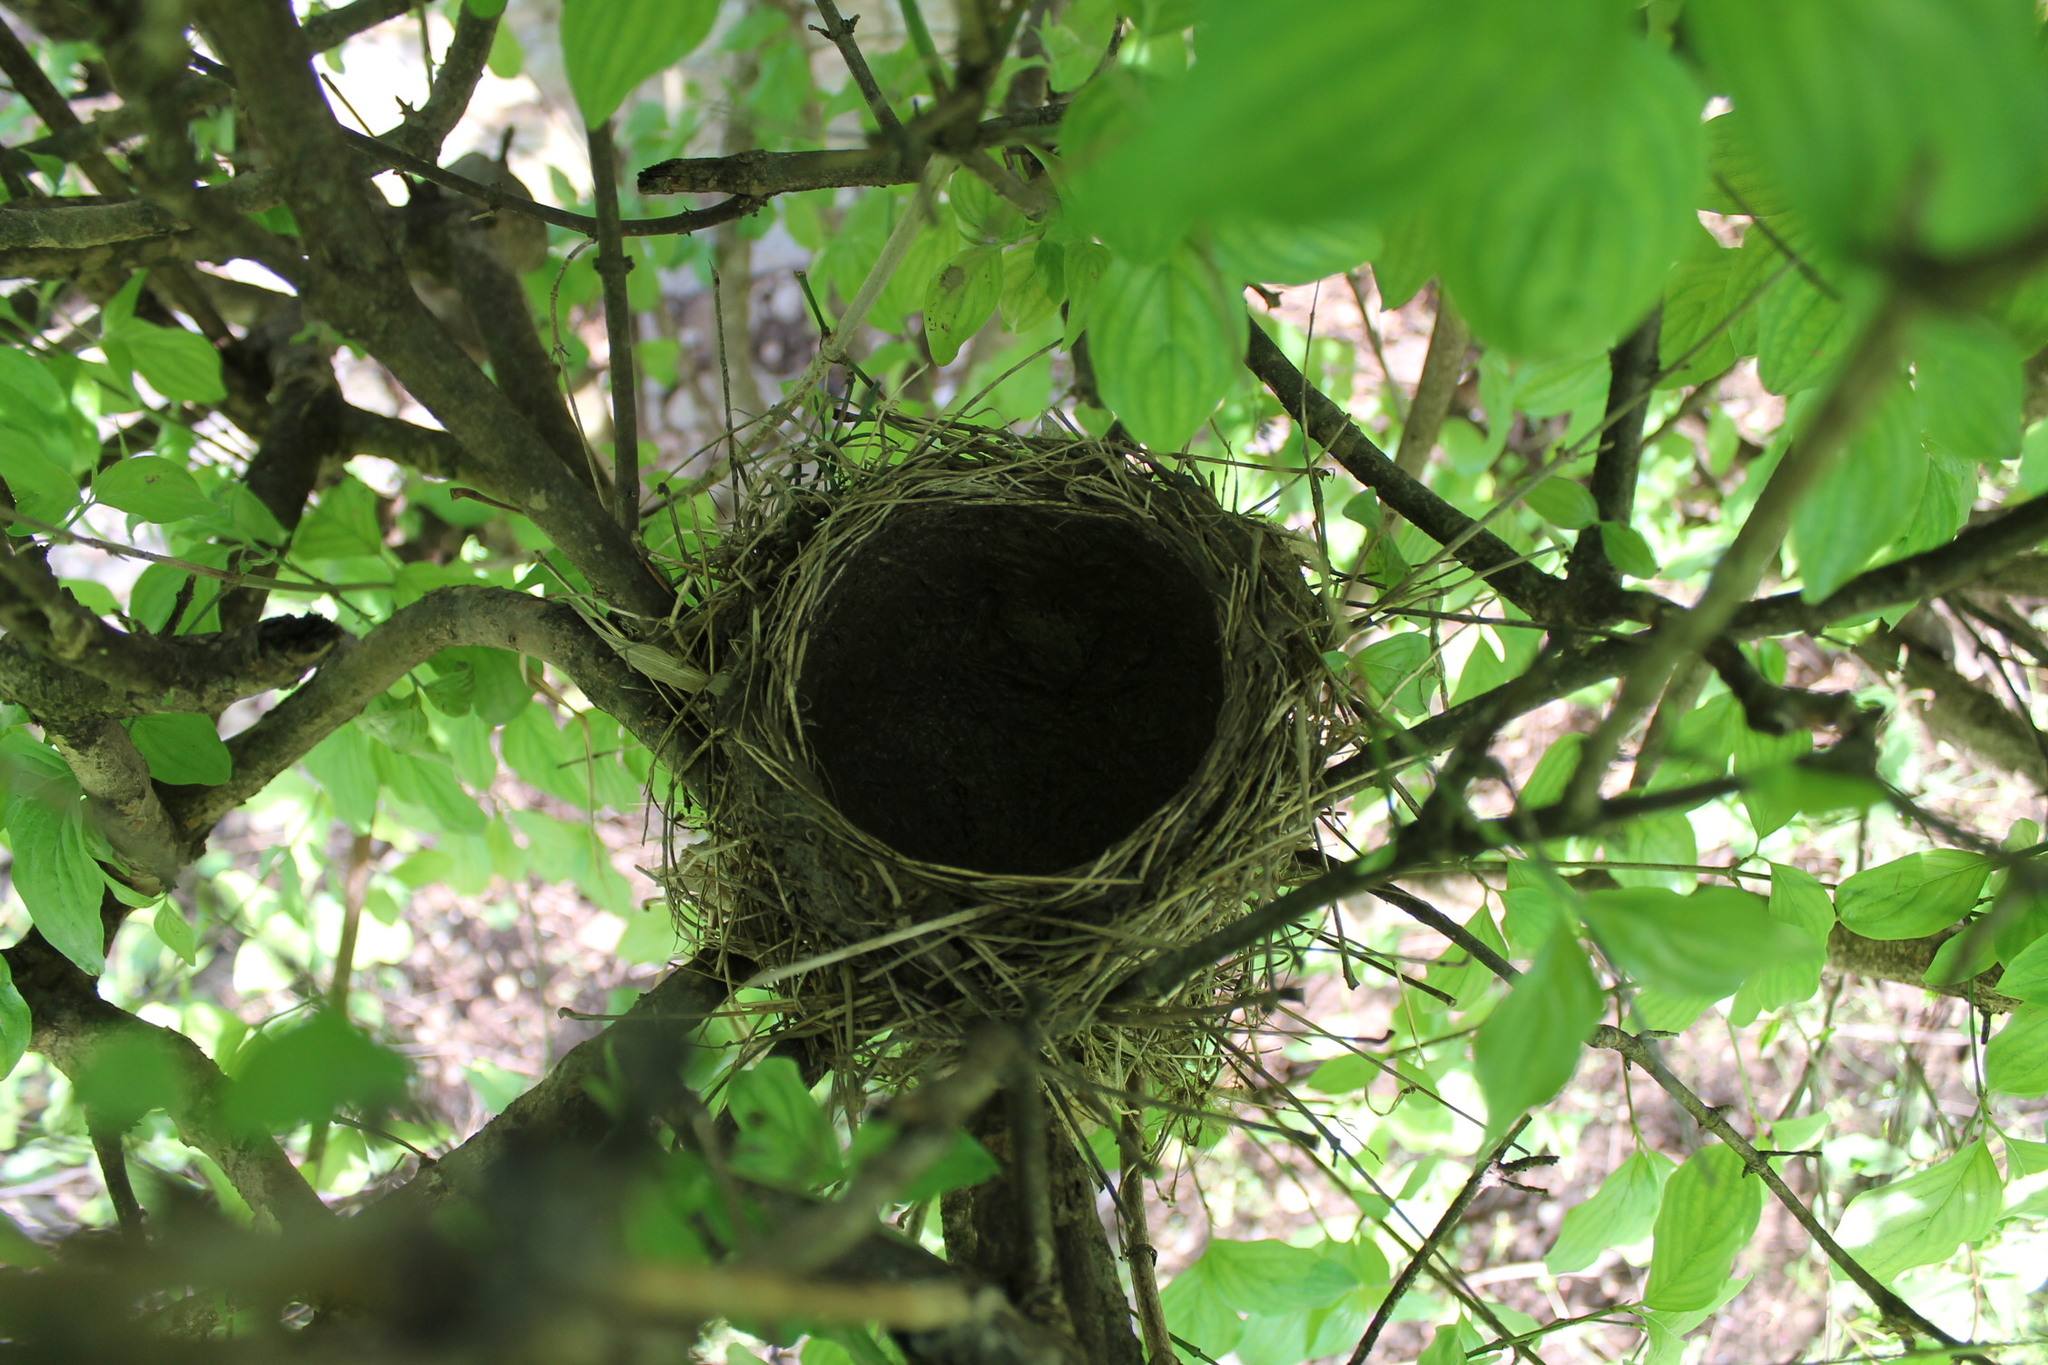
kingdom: Animalia
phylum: Chordata
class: Aves
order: Passeriformes
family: Turdidae
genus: Turdus
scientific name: Turdus migratorius
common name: American robin
